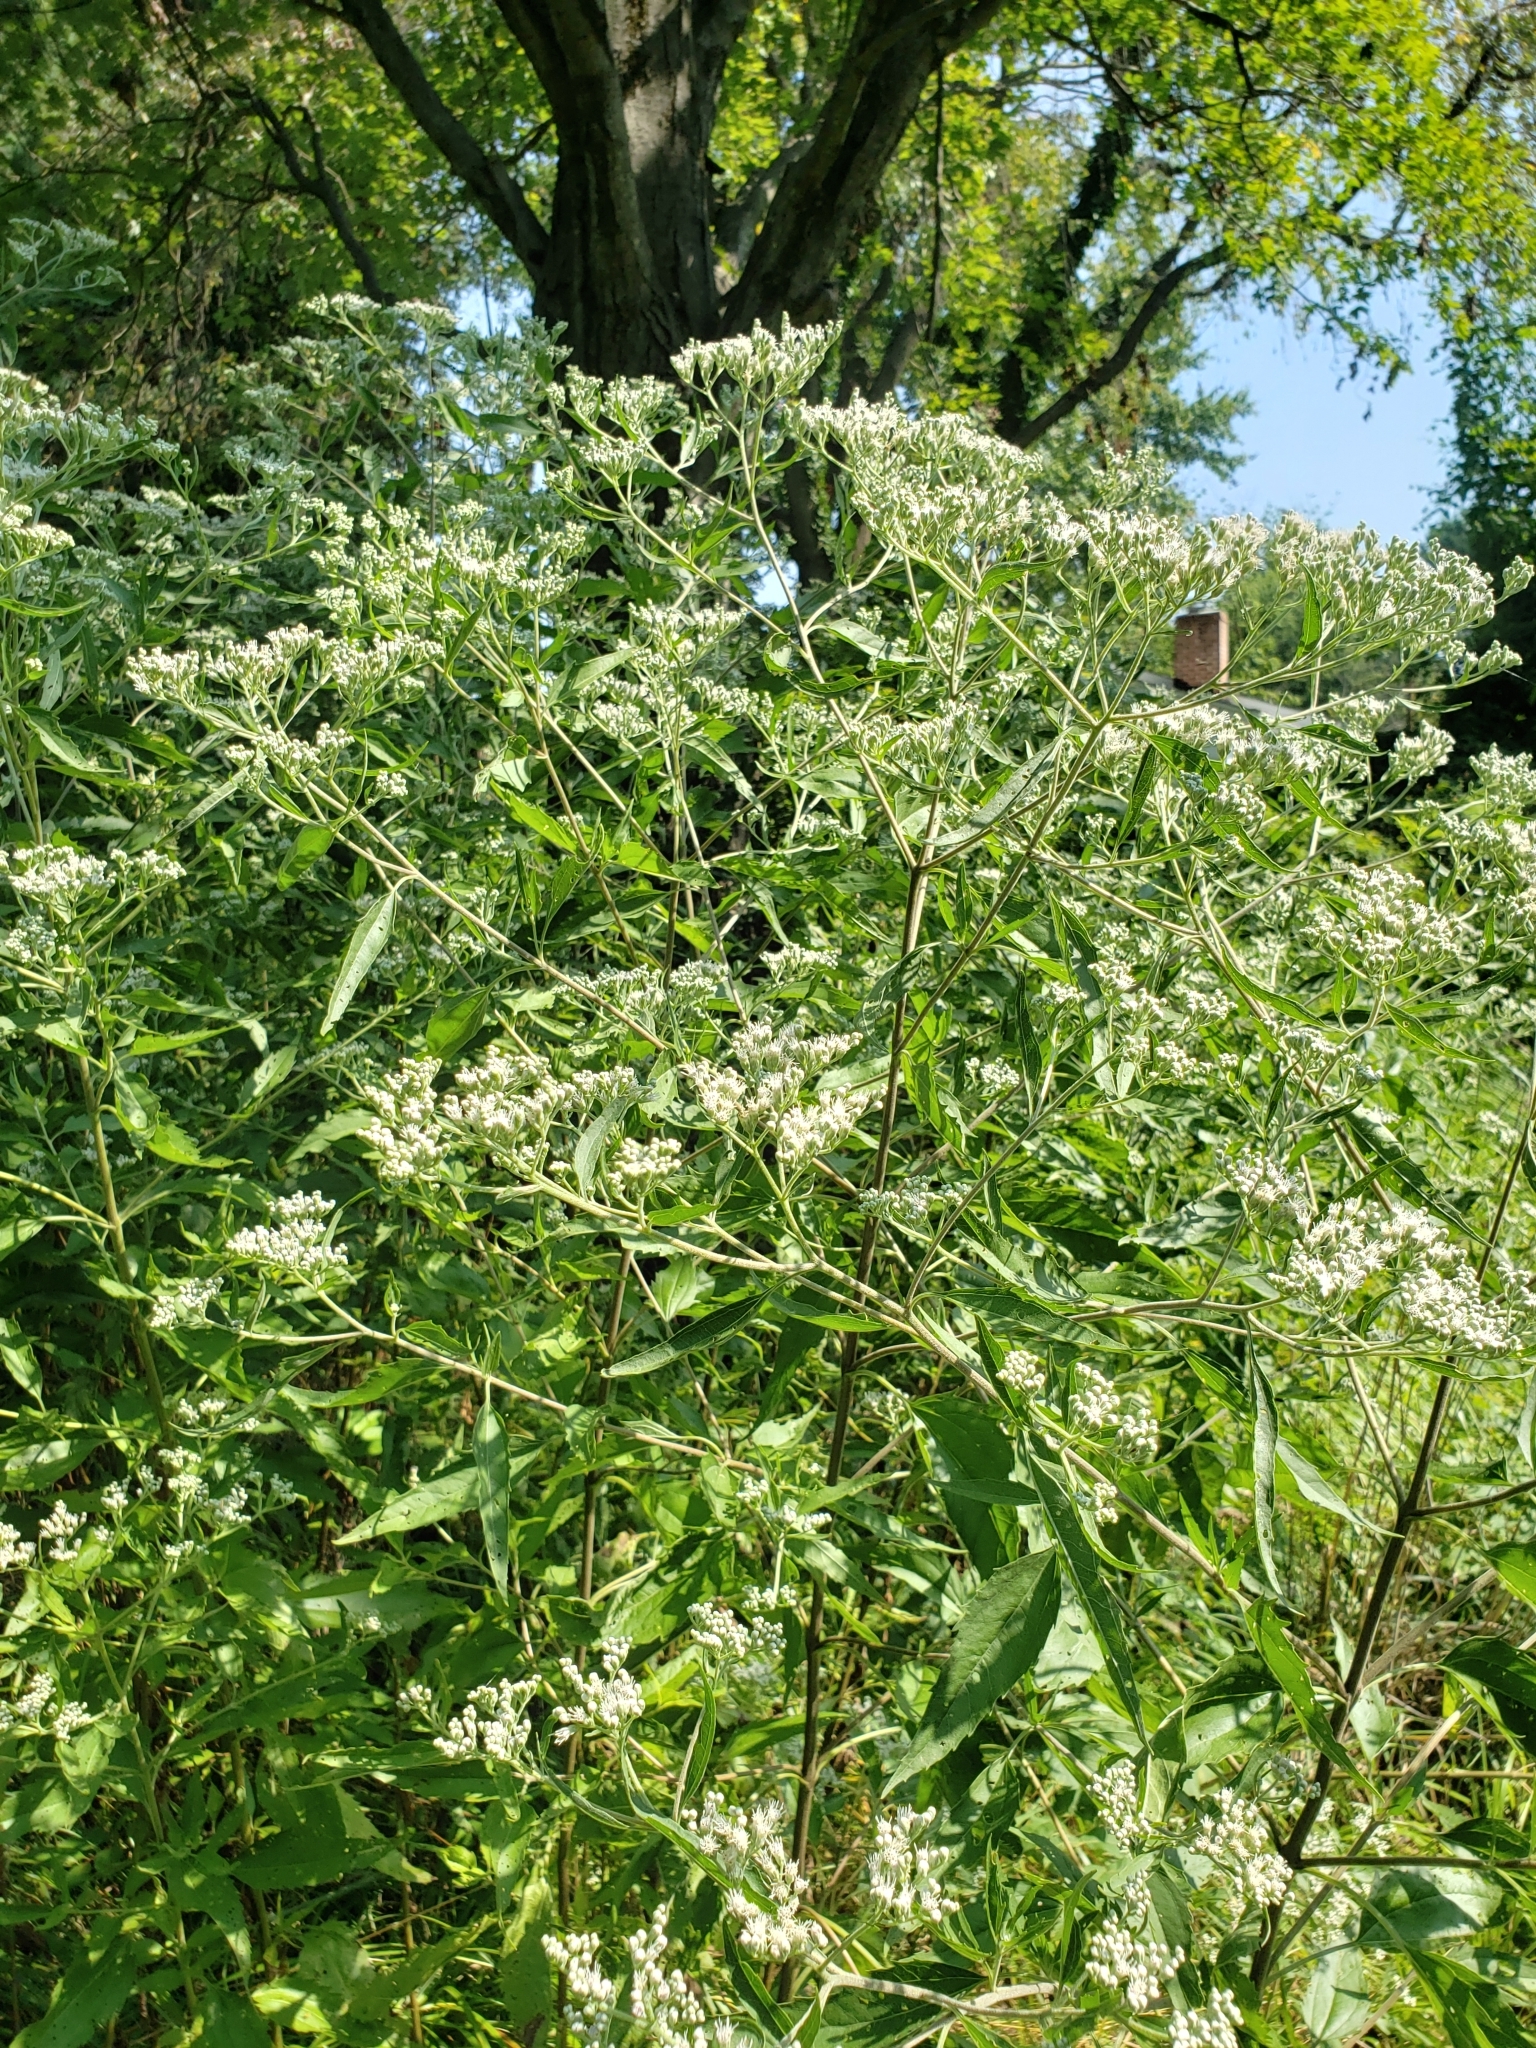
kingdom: Plantae
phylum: Tracheophyta
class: Magnoliopsida
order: Asterales
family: Asteraceae
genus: Eupatorium
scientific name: Eupatorium serotinum
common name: Late boneset
